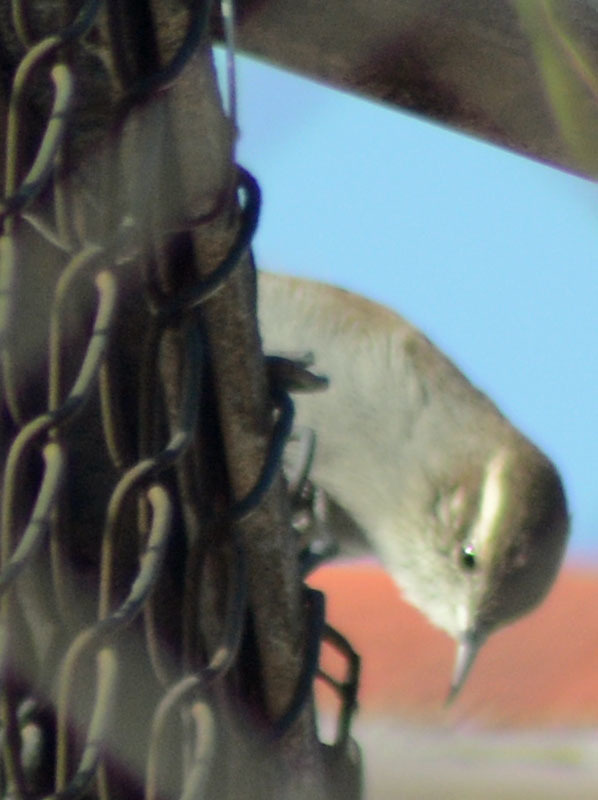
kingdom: Animalia
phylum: Chordata
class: Aves
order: Passeriformes
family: Troglodytidae
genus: Thryomanes
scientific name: Thryomanes bewickii
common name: Bewick's wren
